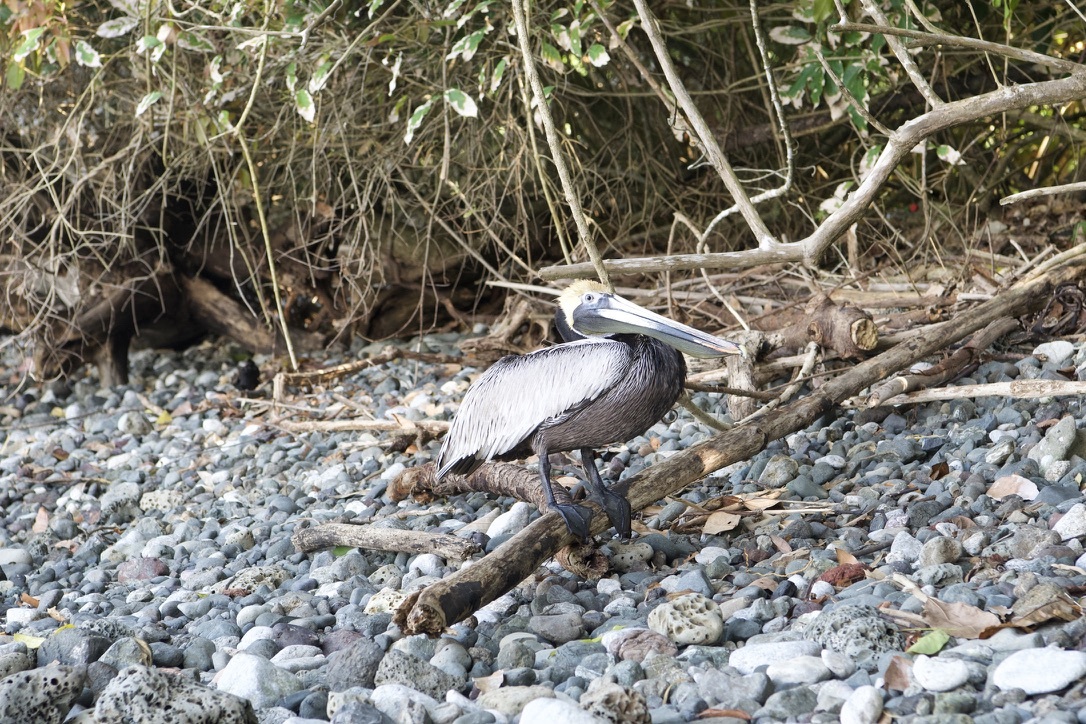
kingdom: Animalia
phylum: Chordata
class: Aves
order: Pelecaniformes
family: Pelecanidae
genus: Pelecanus
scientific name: Pelecanus occidentalis
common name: Brown pelican
